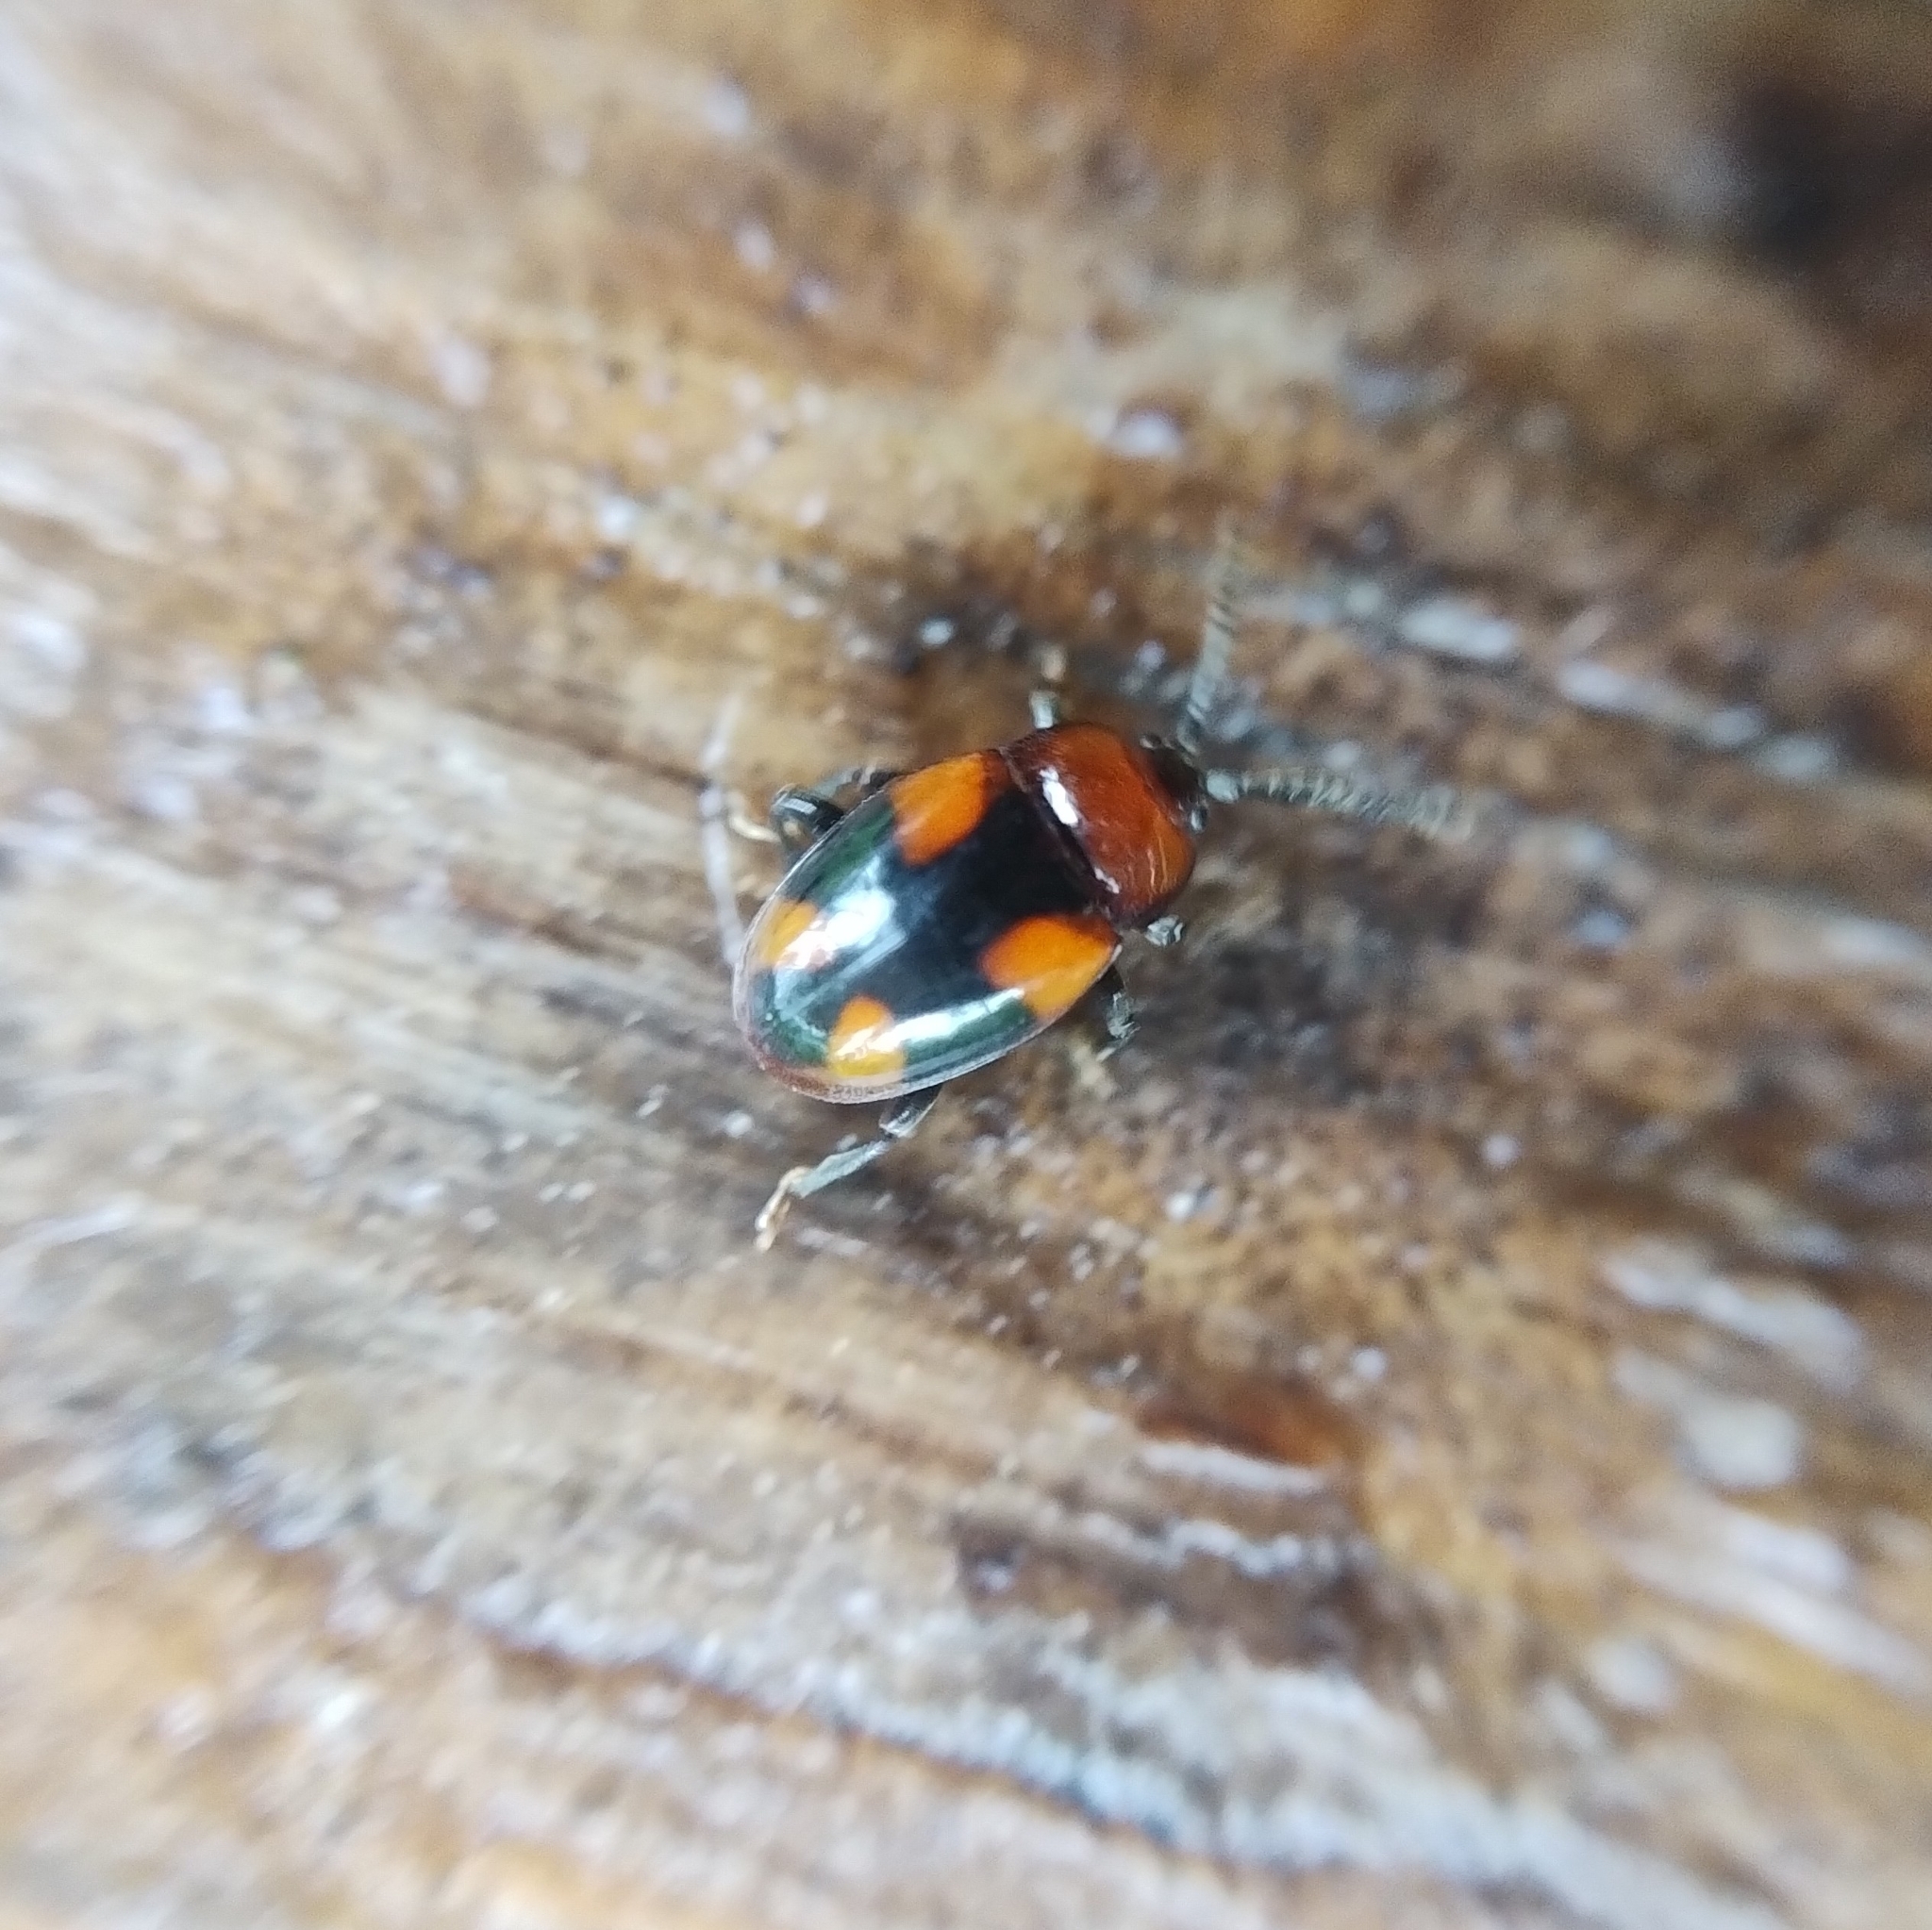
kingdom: Animalia
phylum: Arthropoda
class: Insecta
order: Coleoptera
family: Endomychidae
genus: Mycetina
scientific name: Mycetina cruciata
